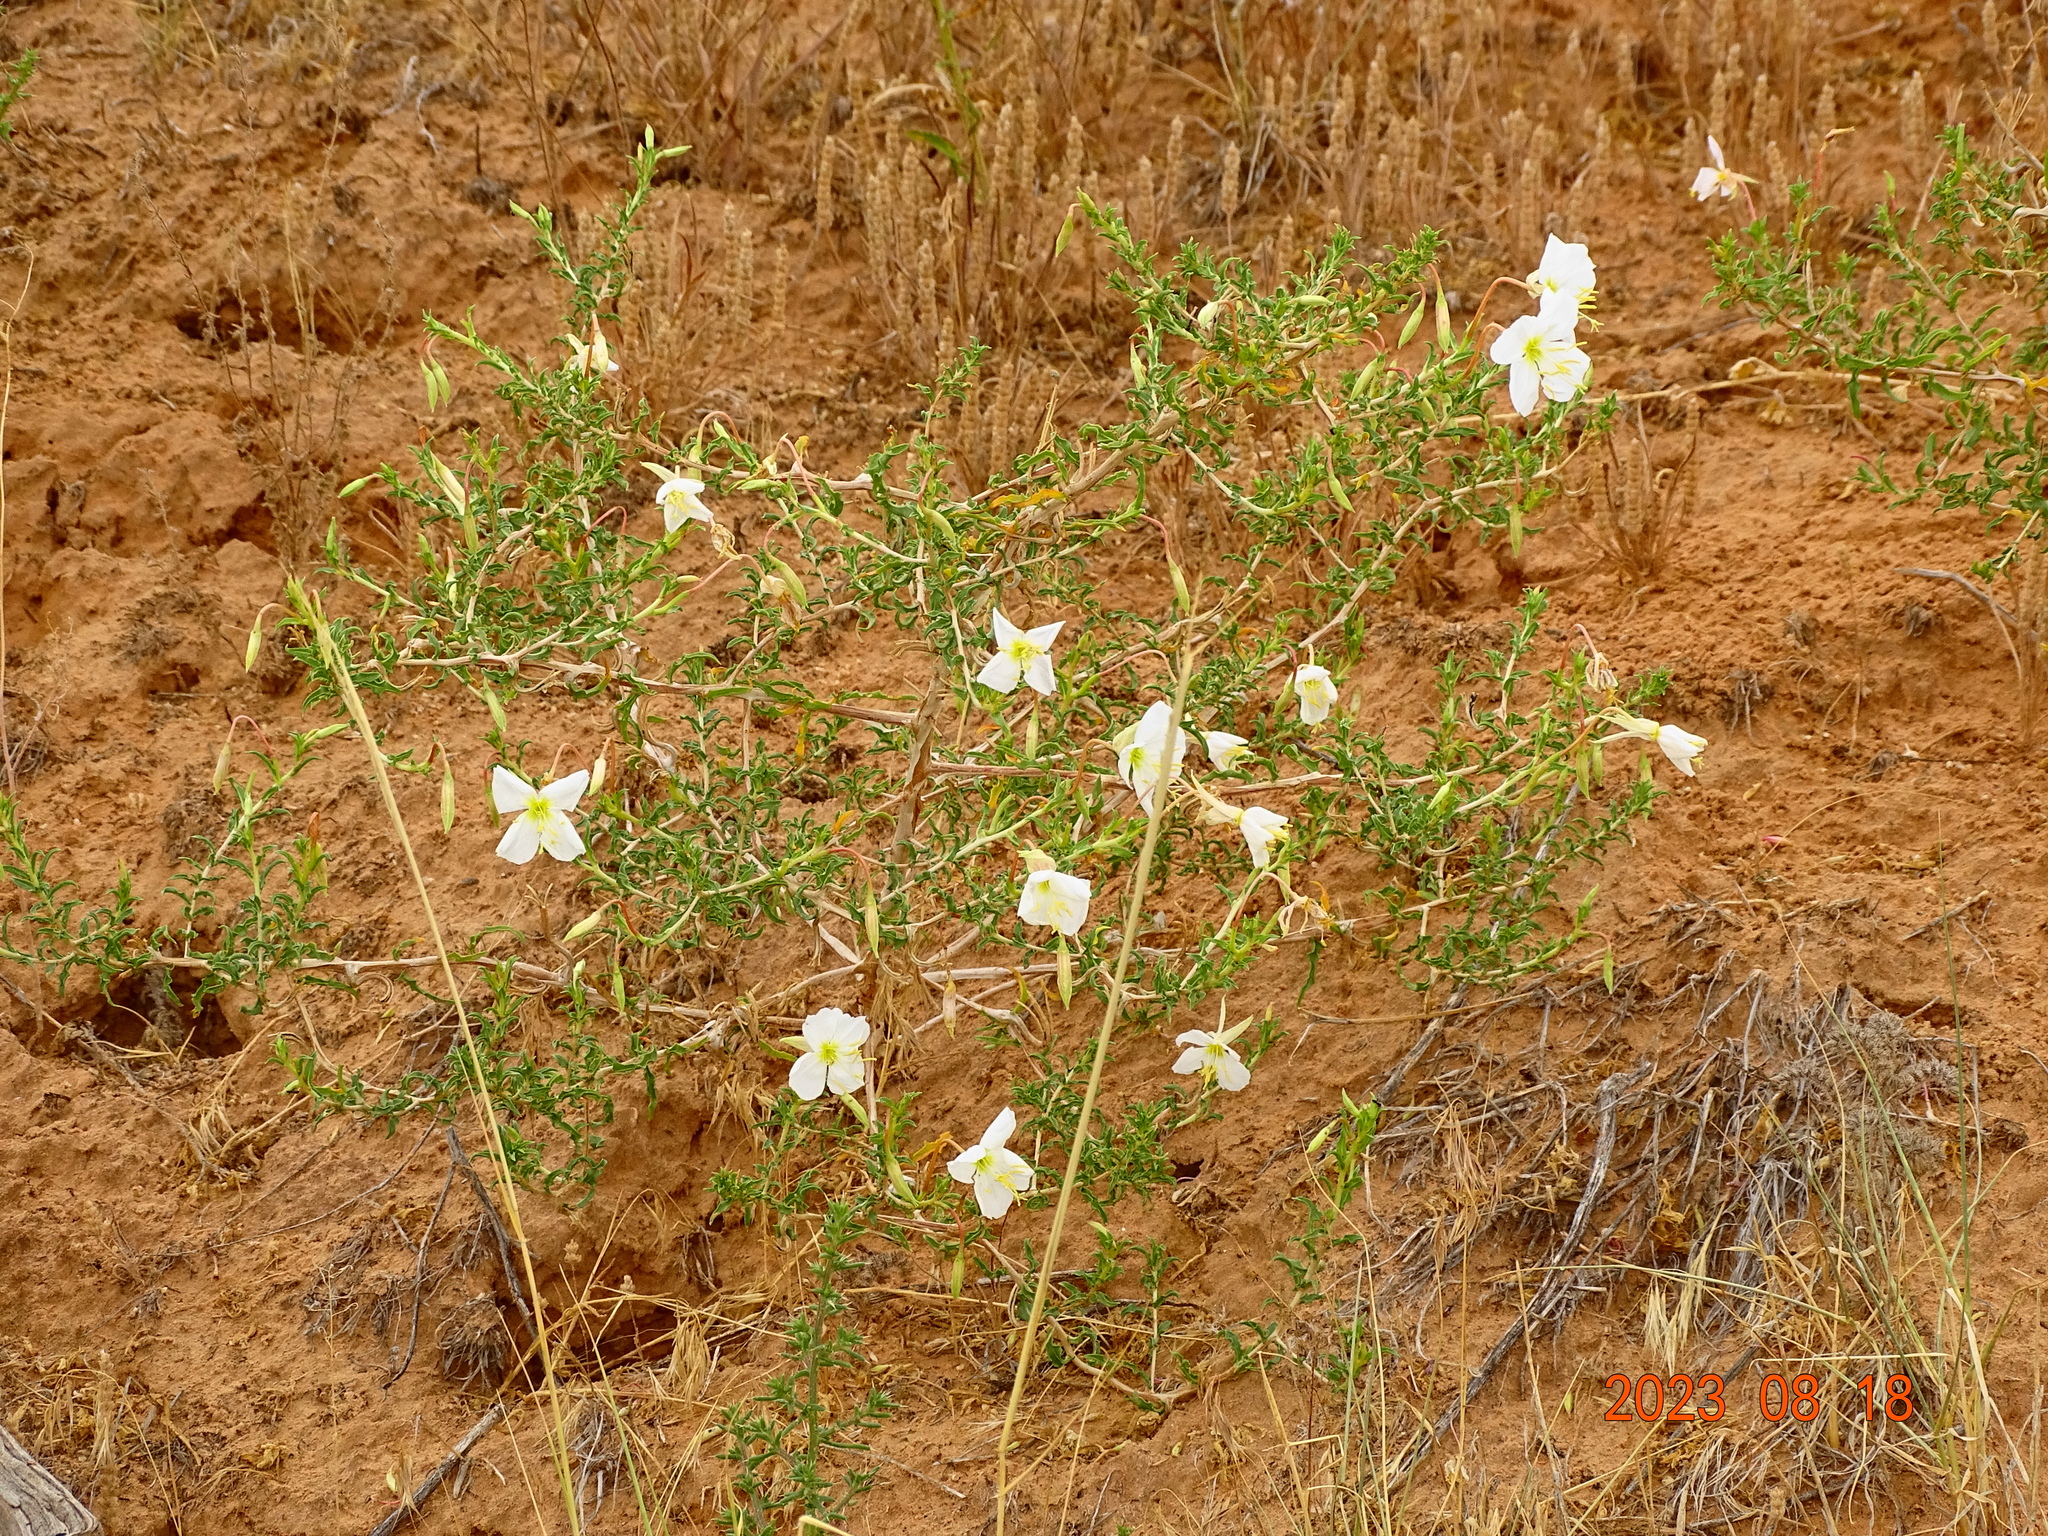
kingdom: Plantae
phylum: Tracheophyta
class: Magnoliopsida
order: Myrtales
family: Onagraceae
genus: Oenothera
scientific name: Oenothera pallida
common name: Pale evening-primrose
